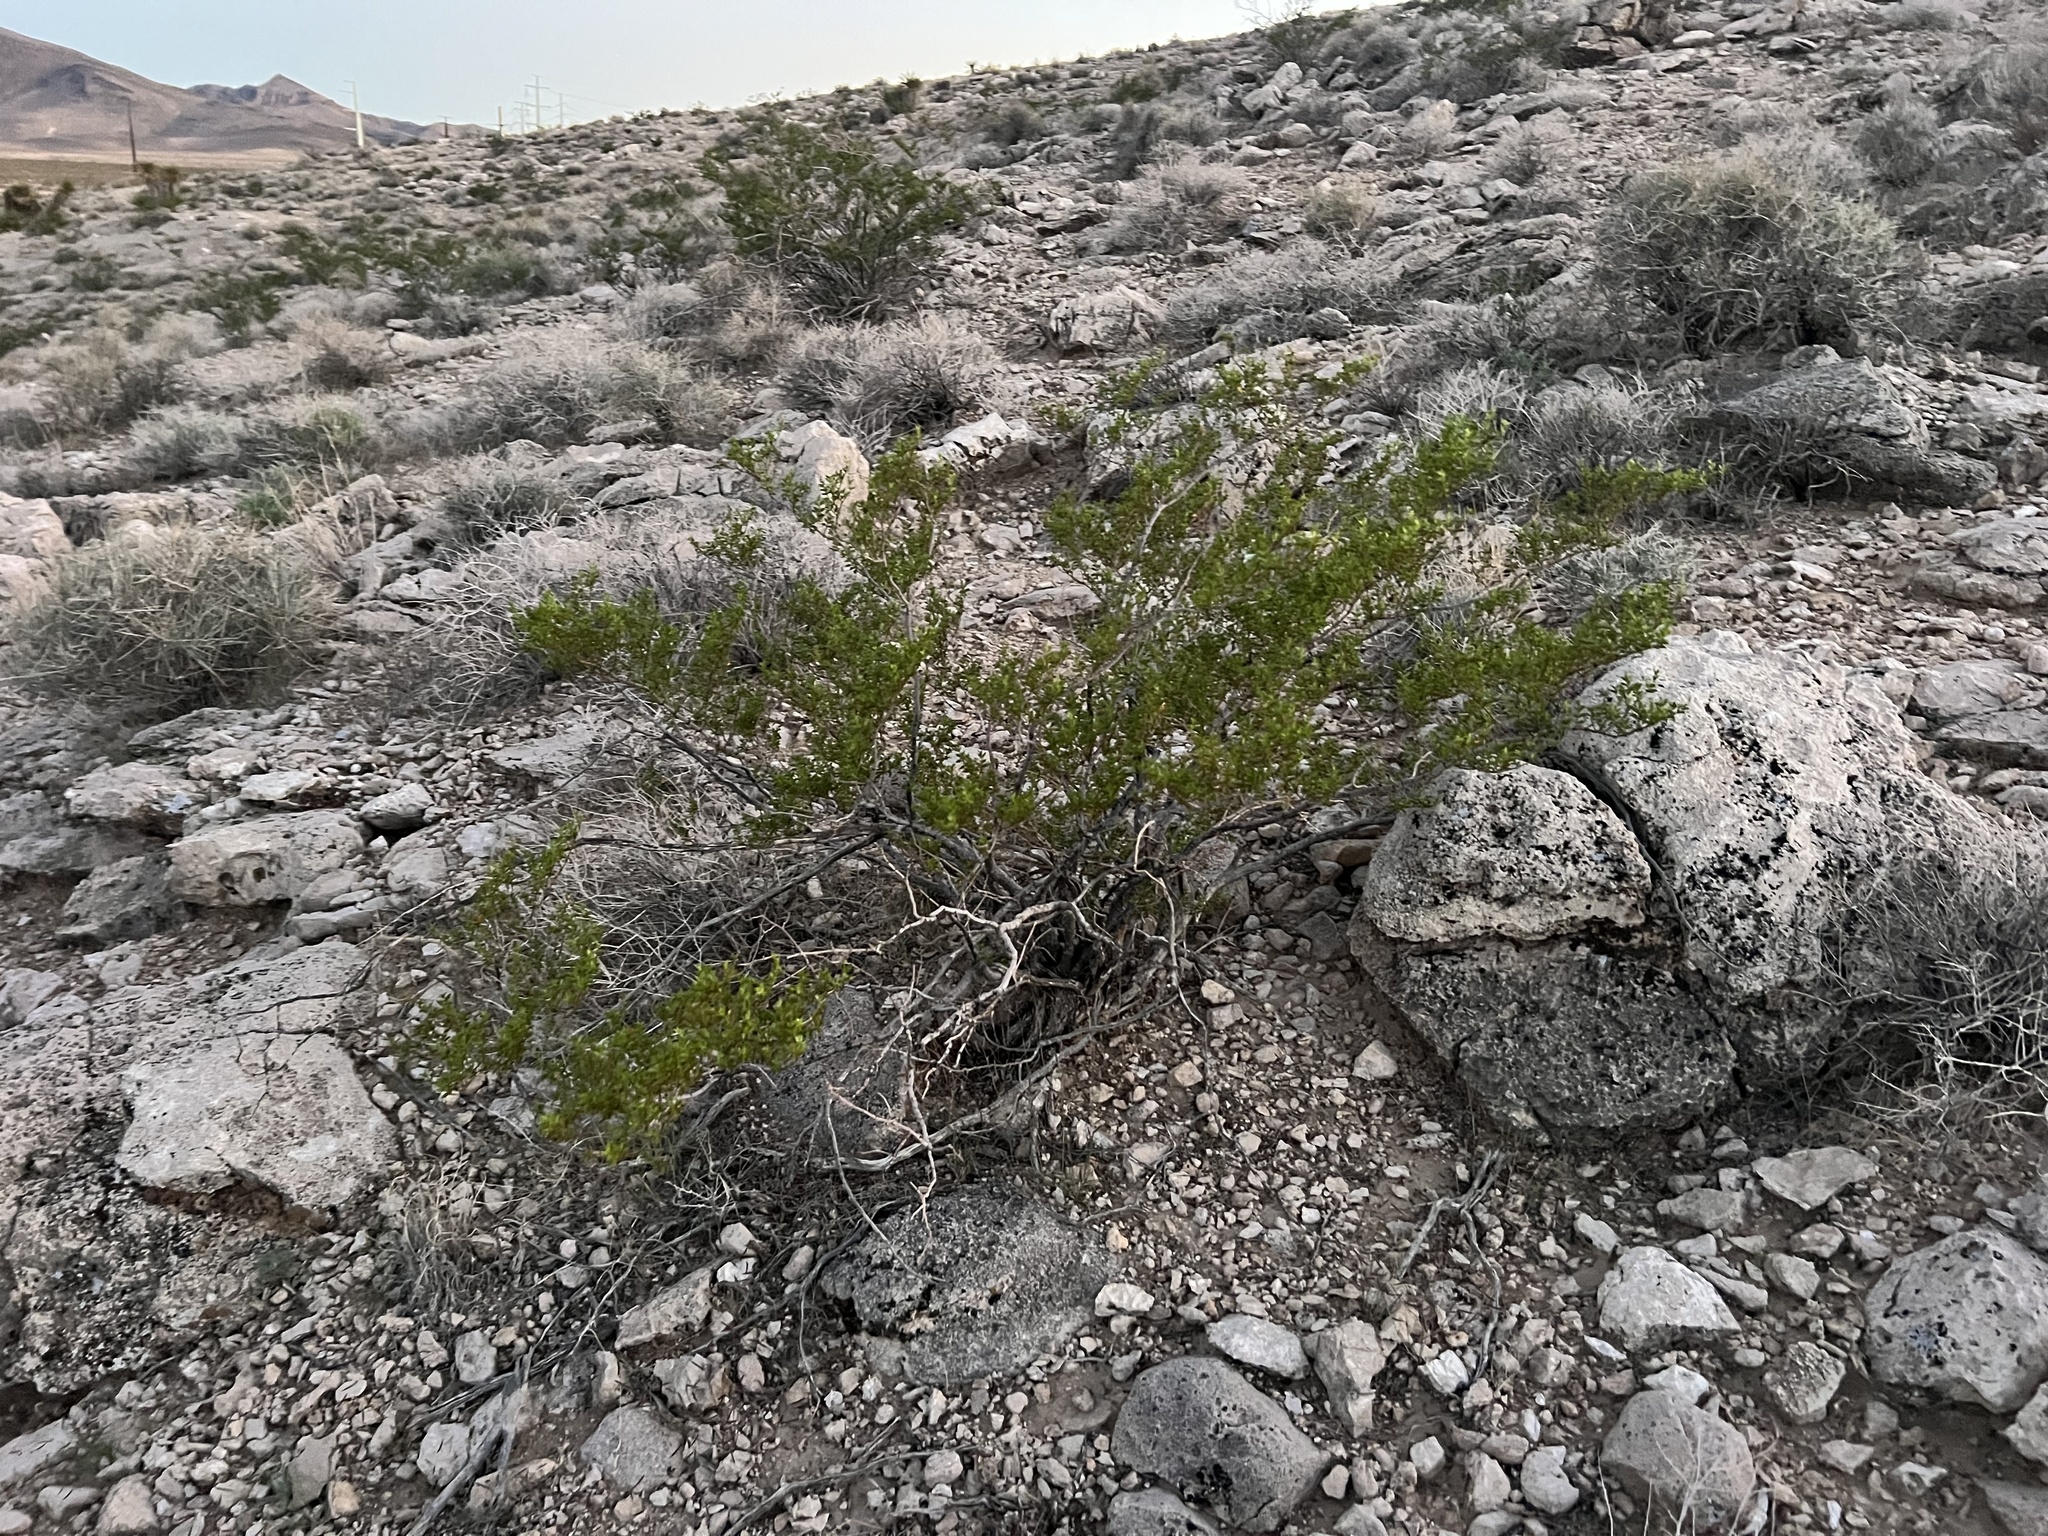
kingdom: Plantae
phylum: Tracheophyta
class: Magnoliopsida
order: Zygophyllales
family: Zygophyllaceae
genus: Larrea
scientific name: Larrea tridentata
